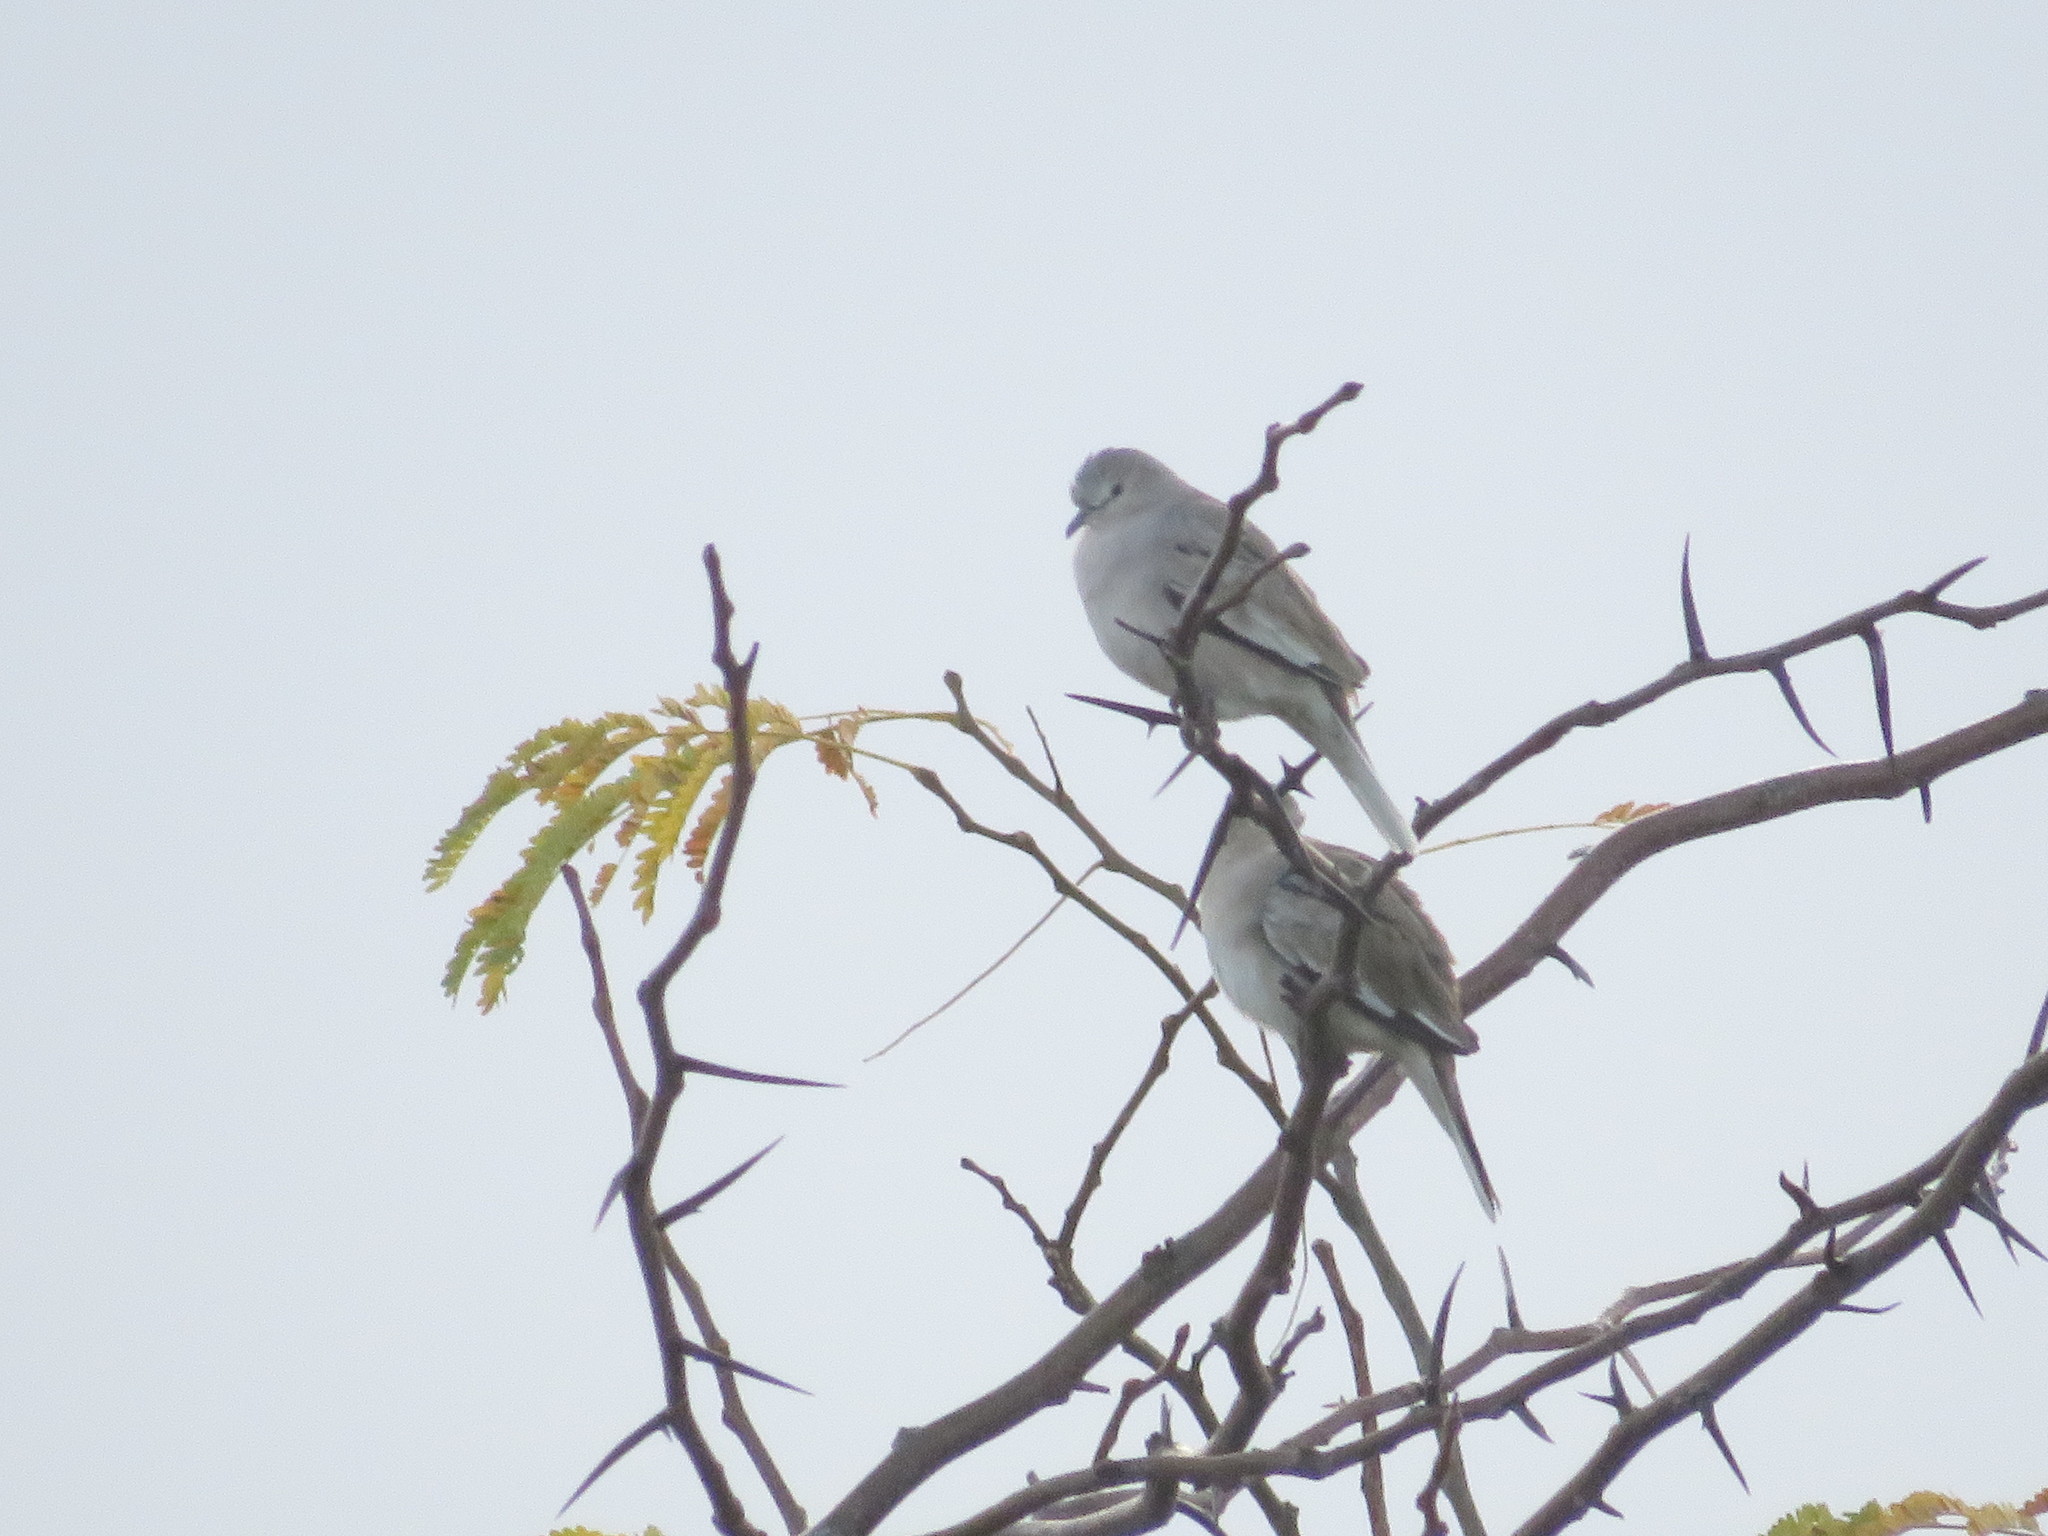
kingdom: Animalia
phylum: Chordata
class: Aves
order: Columbiformes
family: Columbidae
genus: Columbina
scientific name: Columbina picui
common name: Picui ground dove
